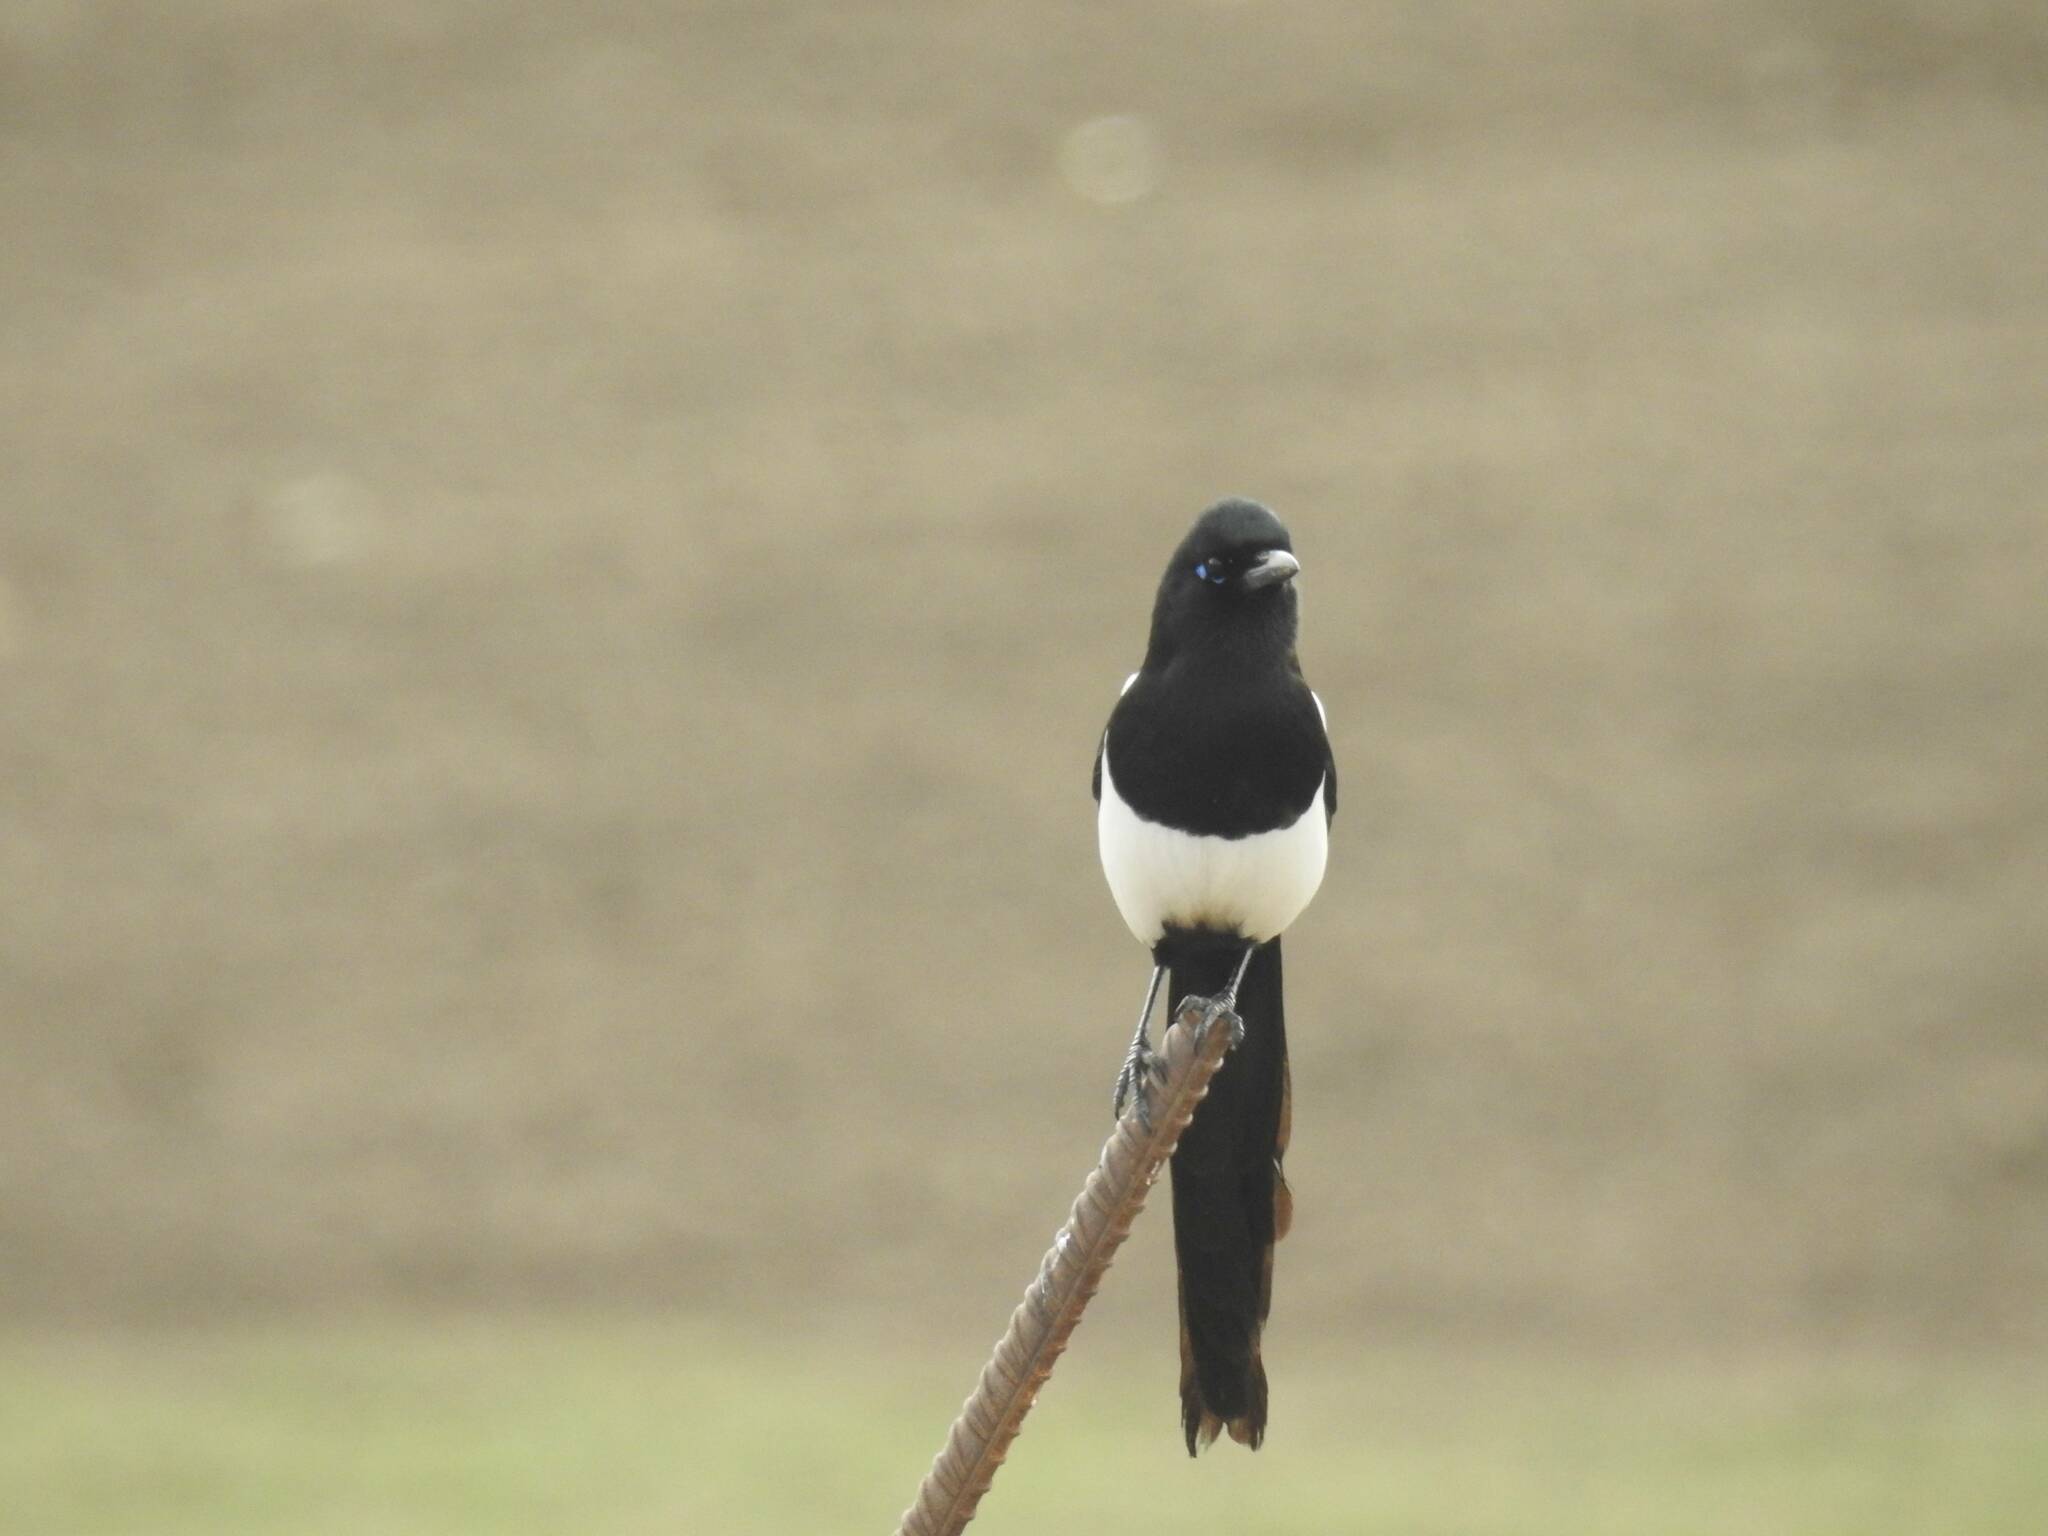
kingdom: Animalia
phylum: Chordata
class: Aves
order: Passeriformes
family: Corvidae
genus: Pica
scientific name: Pica mauritanica
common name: Maghreb magpie
